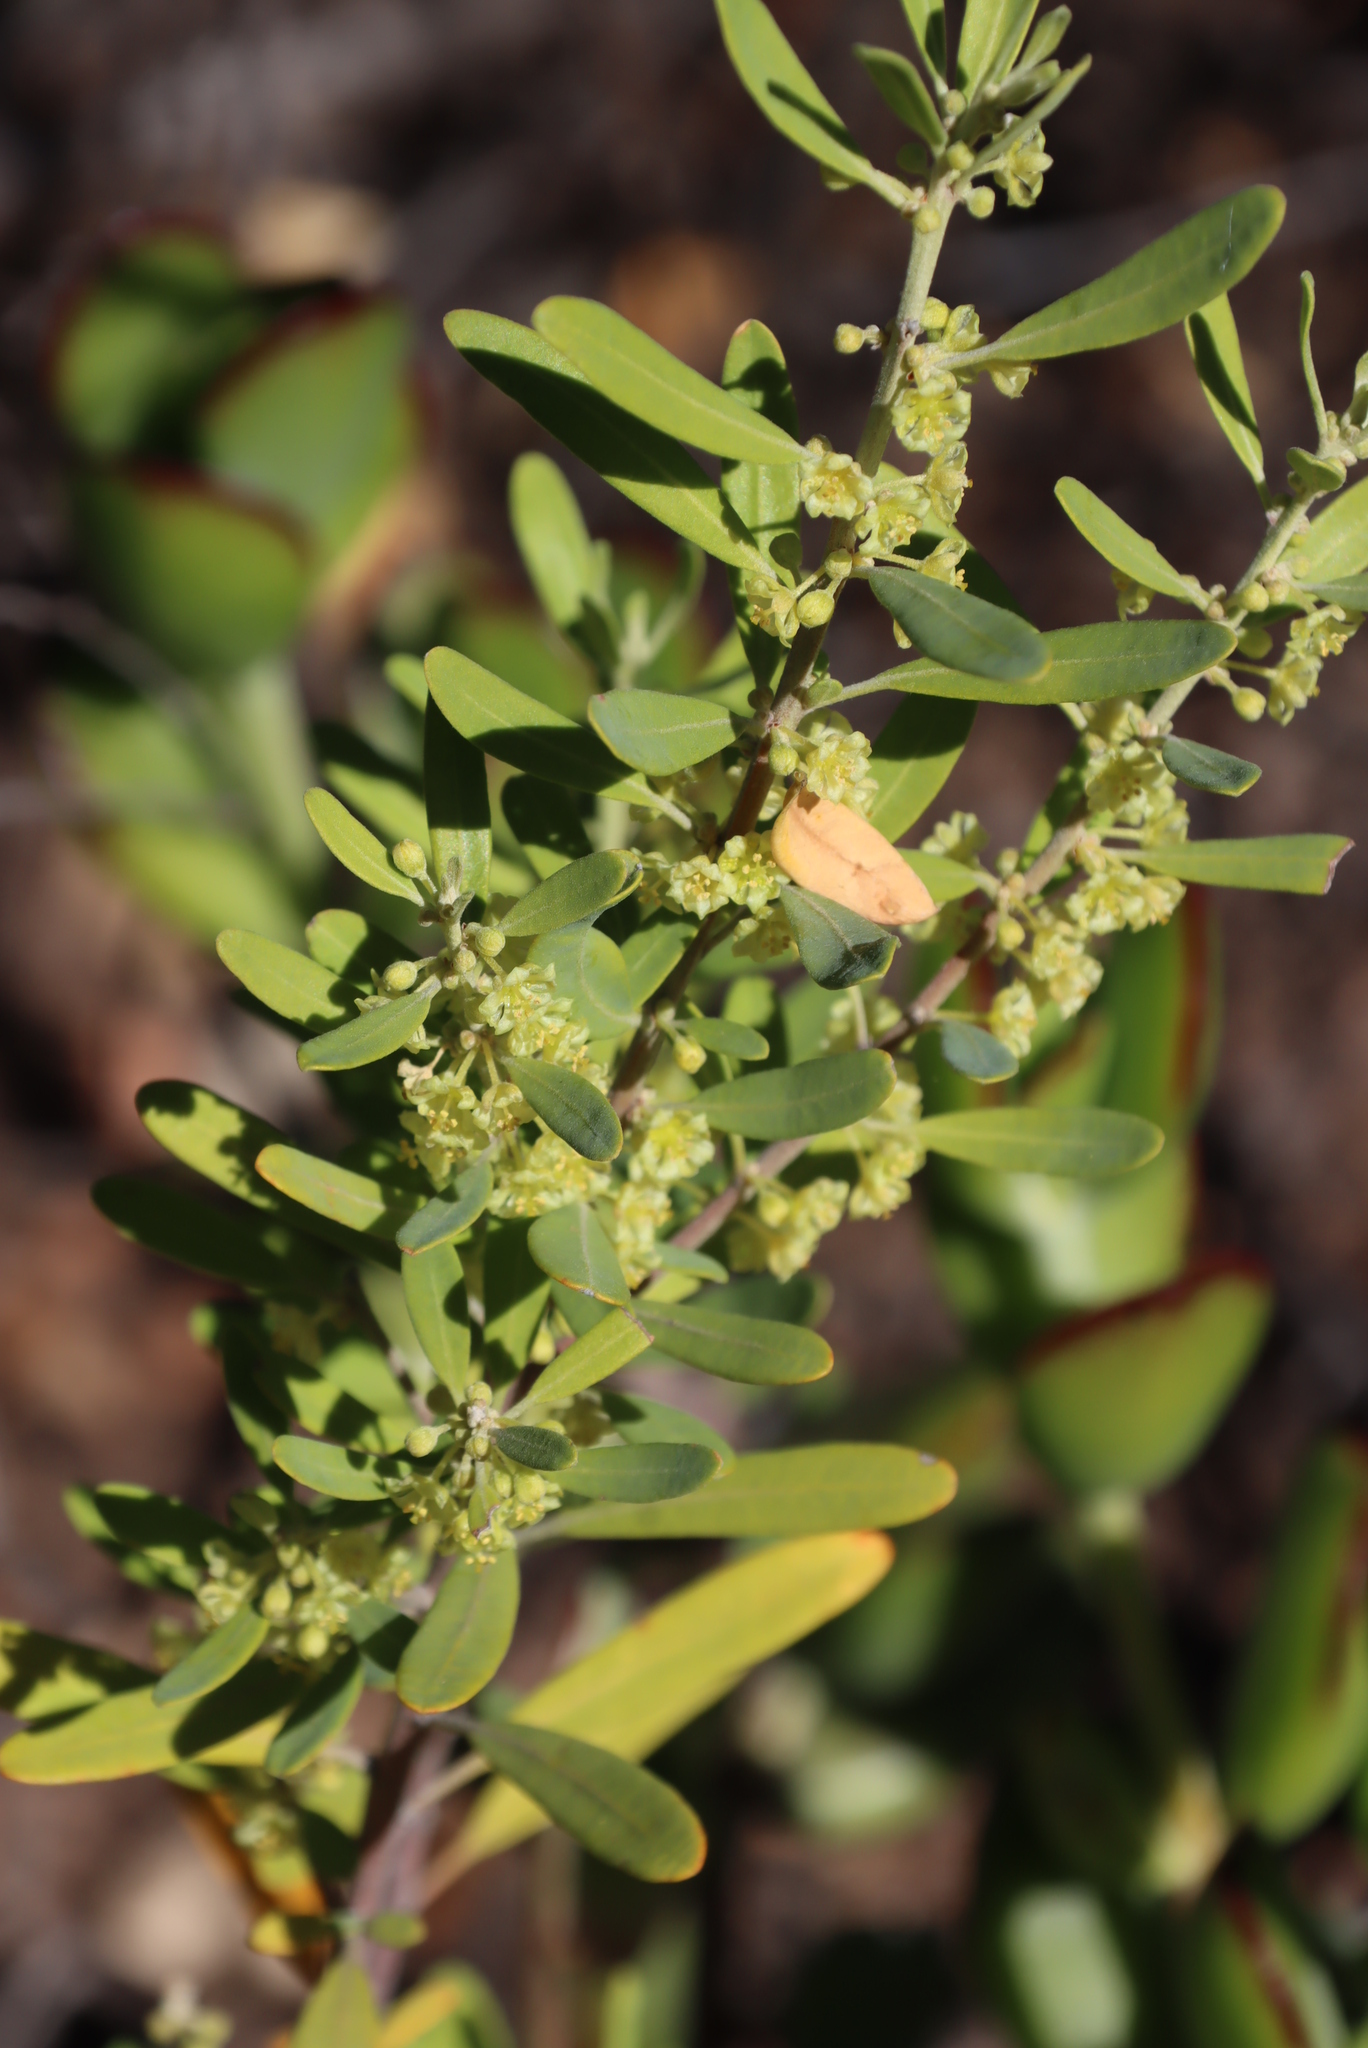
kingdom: Plantae
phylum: Tracheophyta
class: Magnoliopsida
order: Malpighiales
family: Peraceae
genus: Clutia
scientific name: Clutia daphnoides
